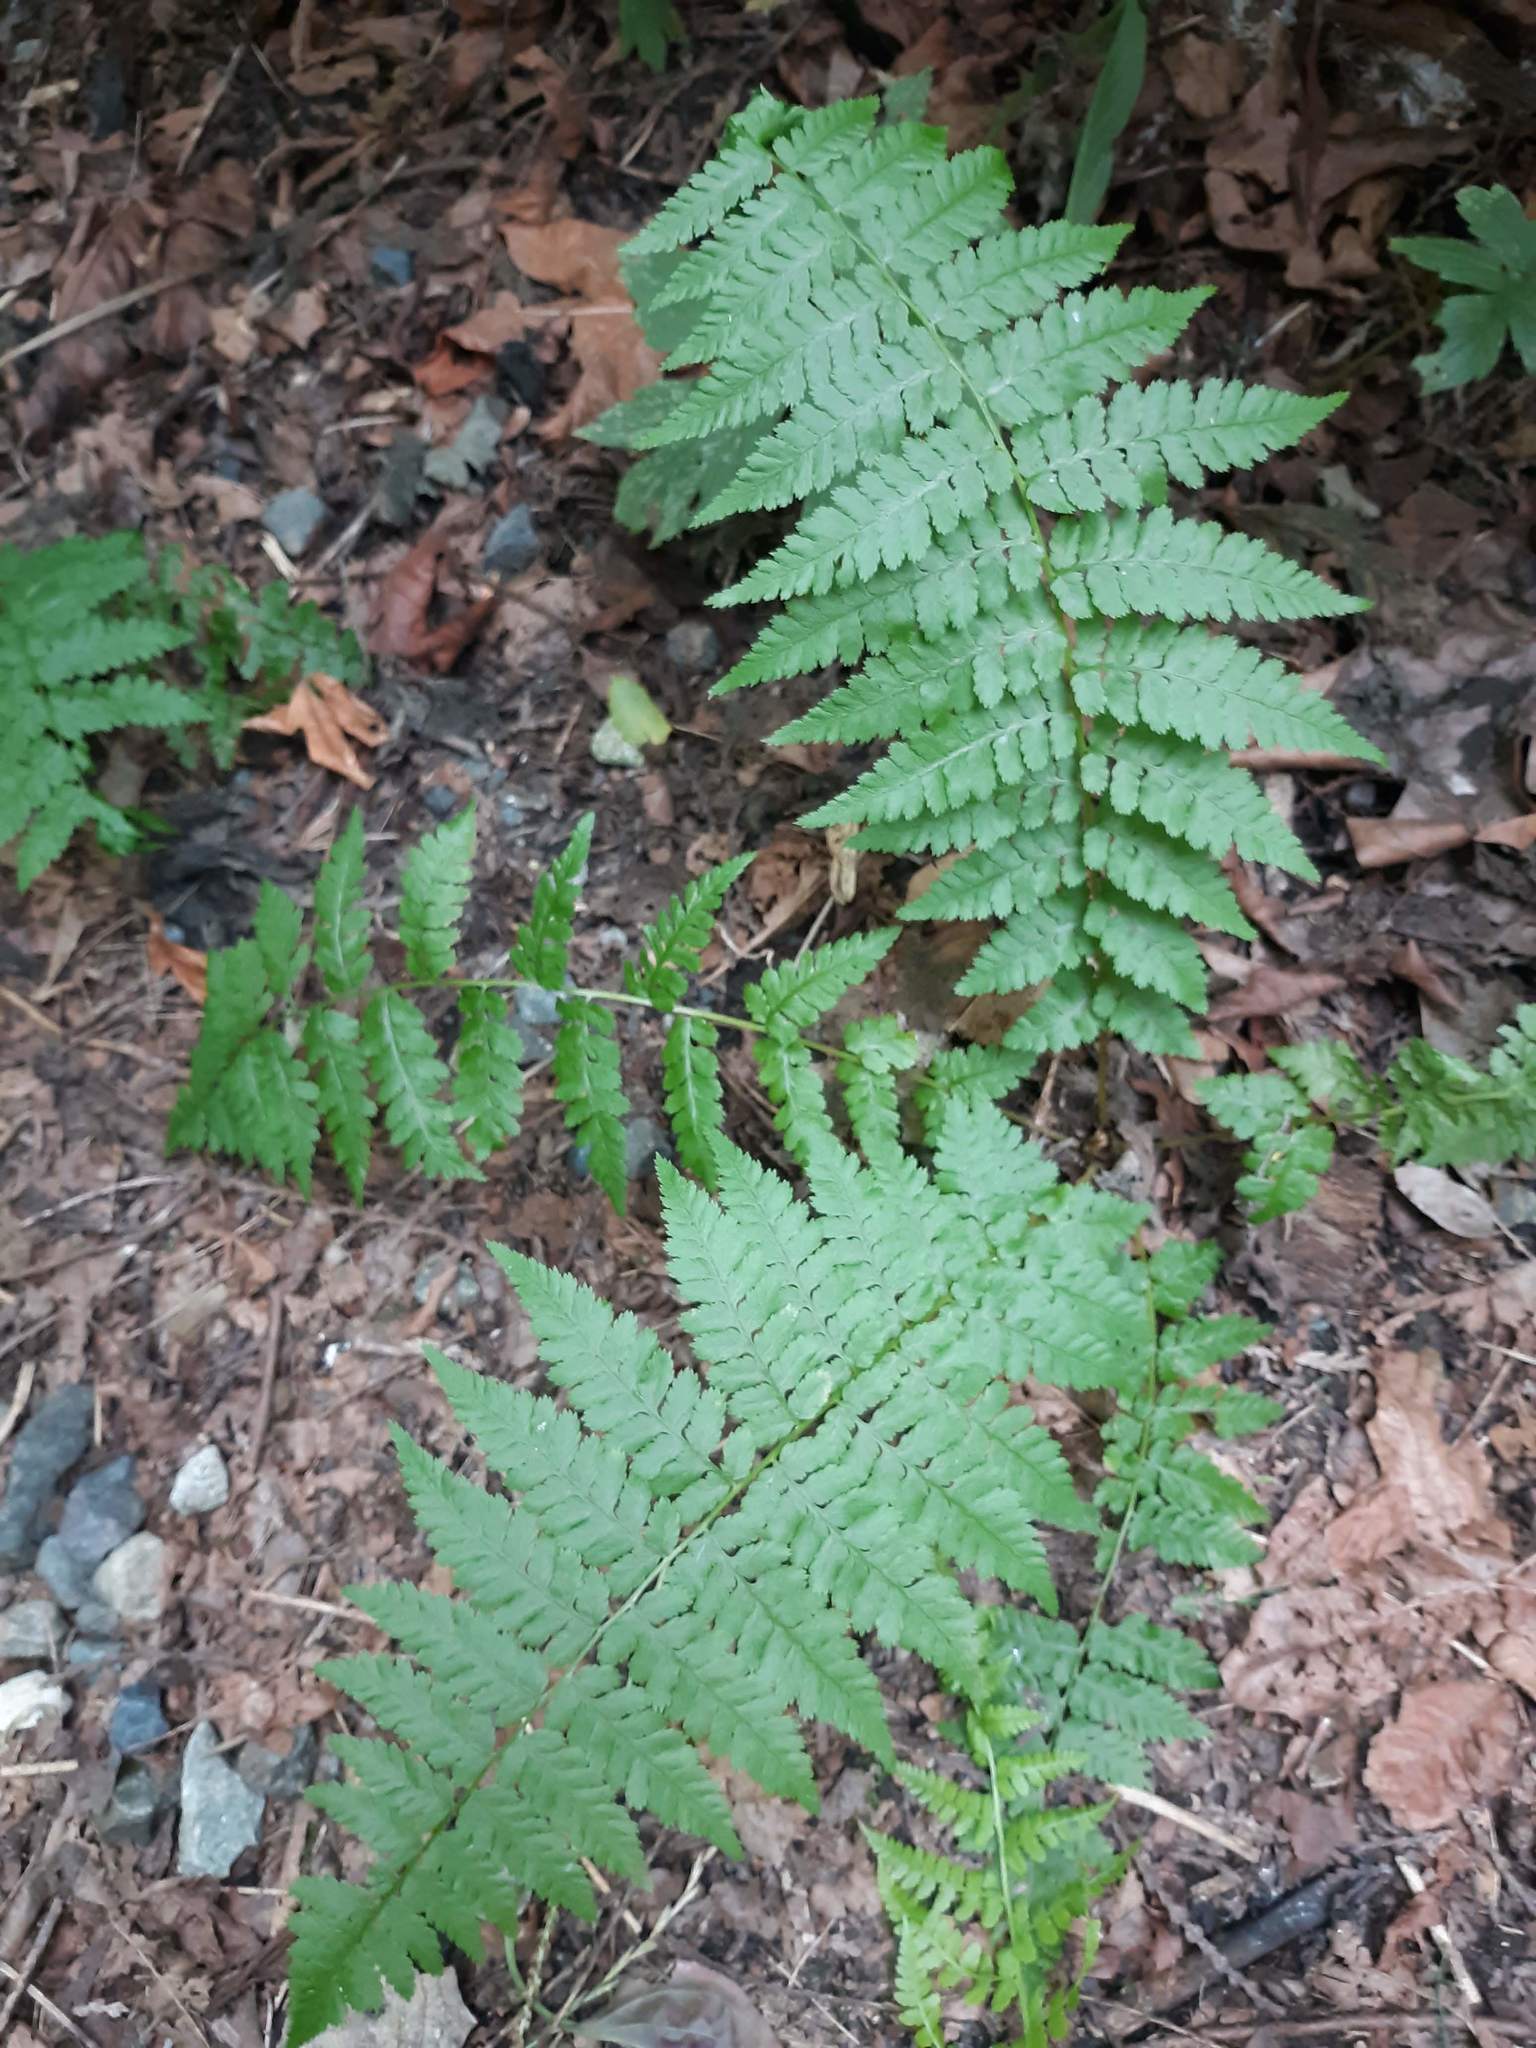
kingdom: Plantae
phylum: Tracheophyta
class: Polypodiopsida
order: Polypodiales
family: Athyriaceae
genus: Athyrium
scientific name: Athyrium cyclosorum
